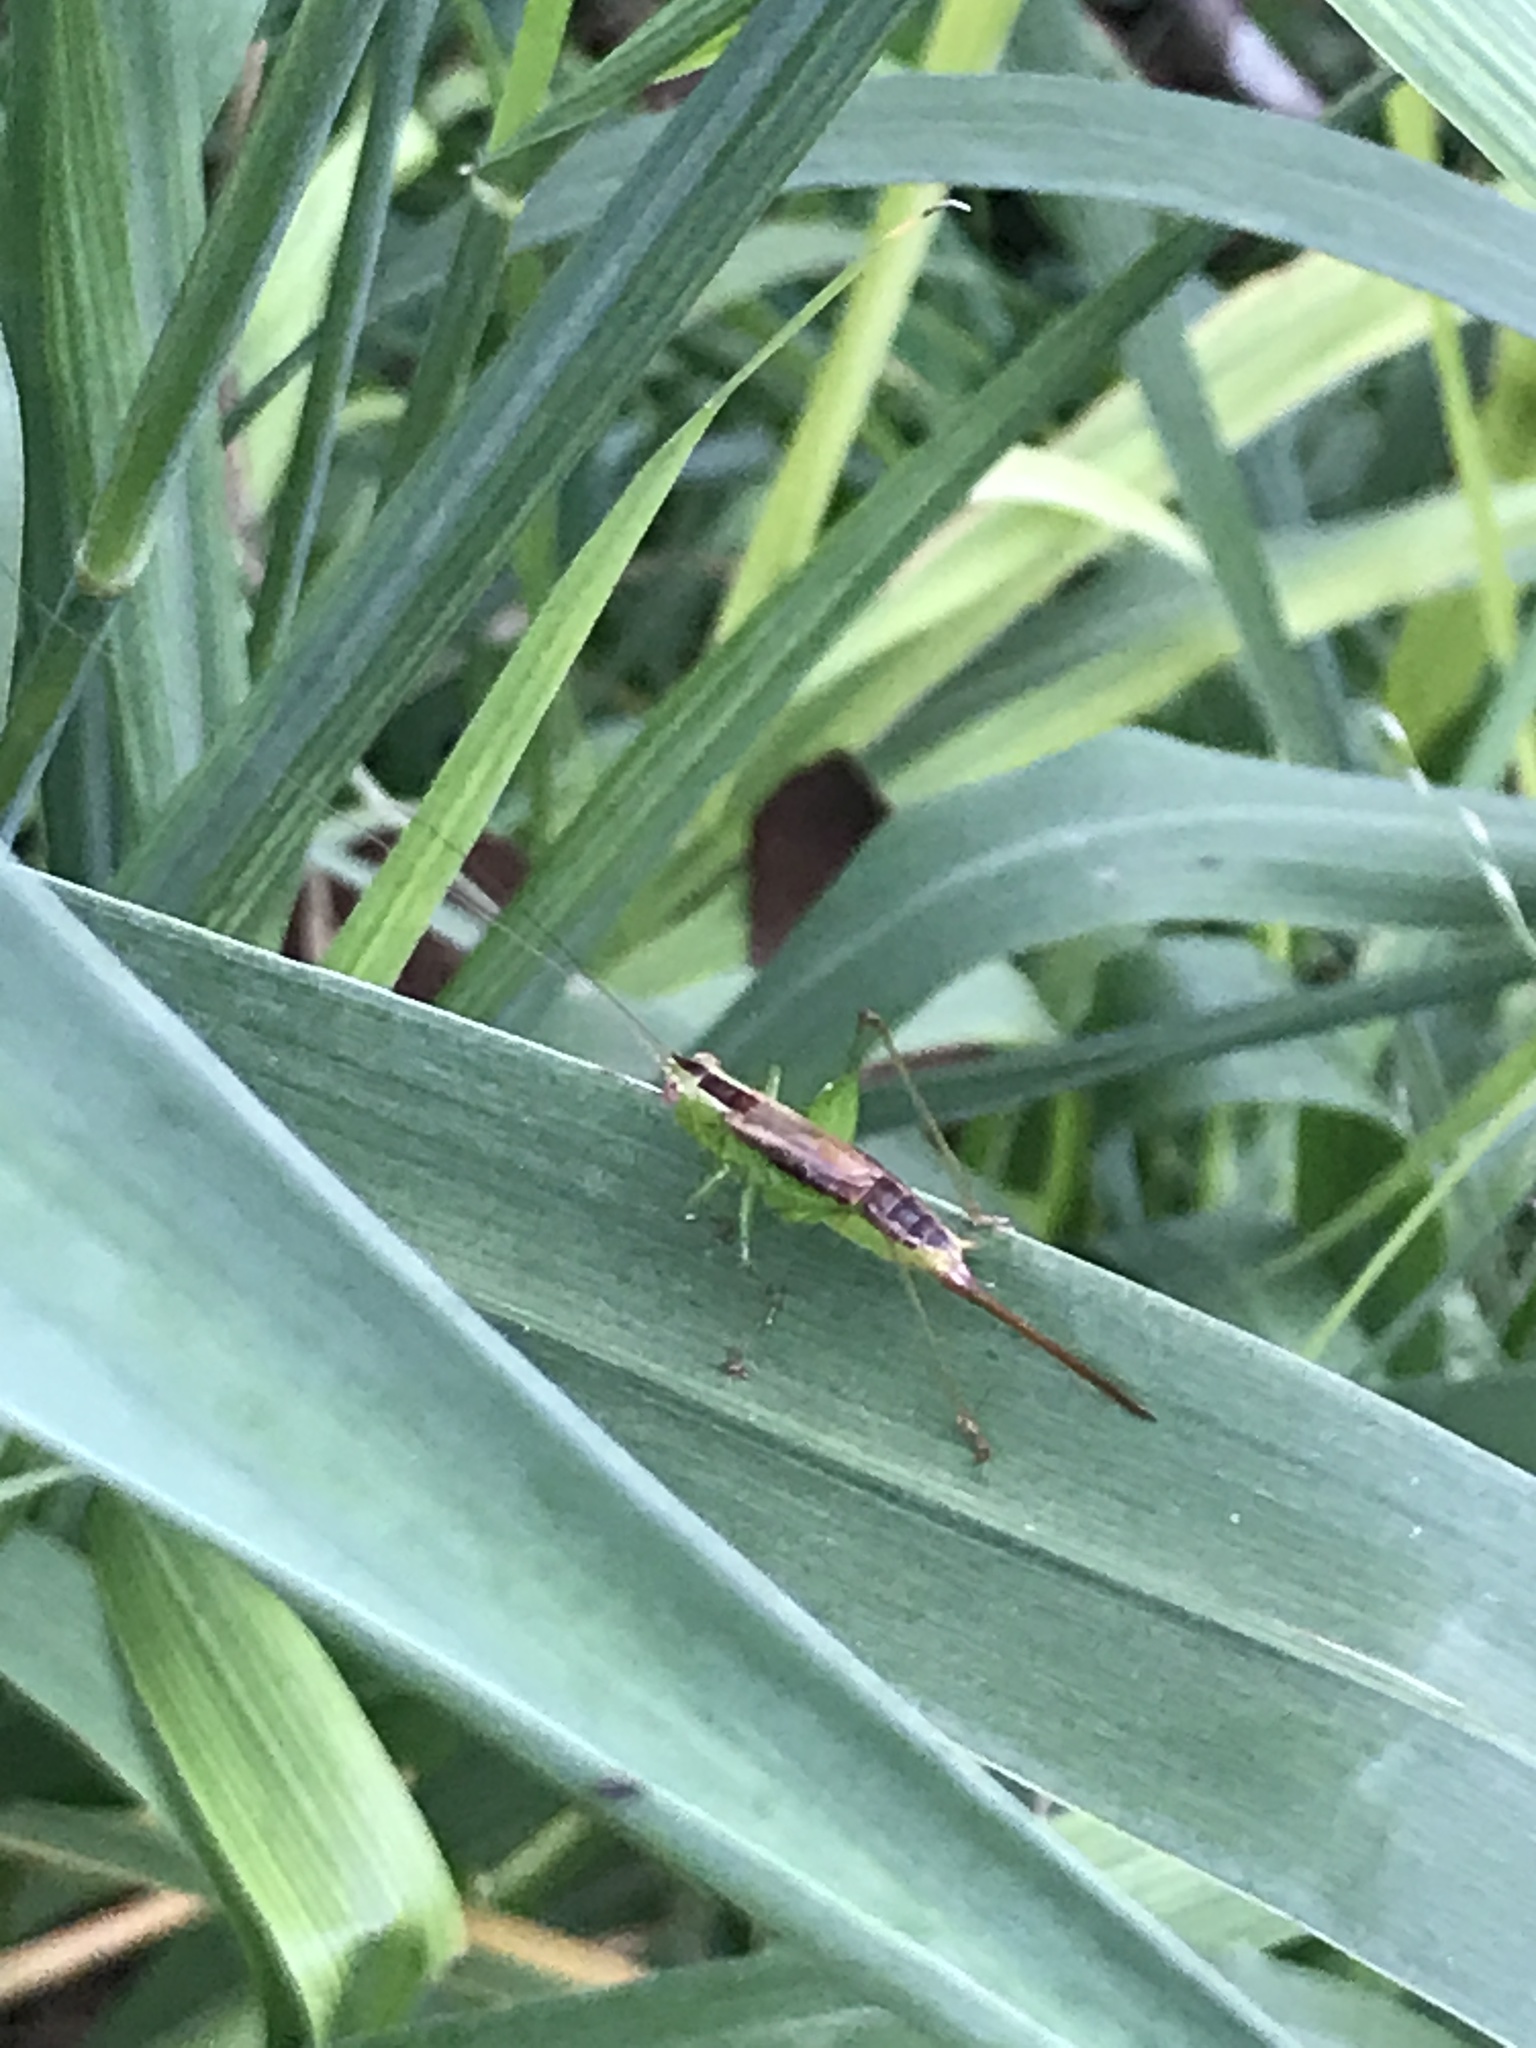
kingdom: Animalia
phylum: Arthropoda
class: Insecta
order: Orthoptera
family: Tettigoniidae
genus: Conocephalus
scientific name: Conocephalus brevipennis
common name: Short-winged meadow katydid
